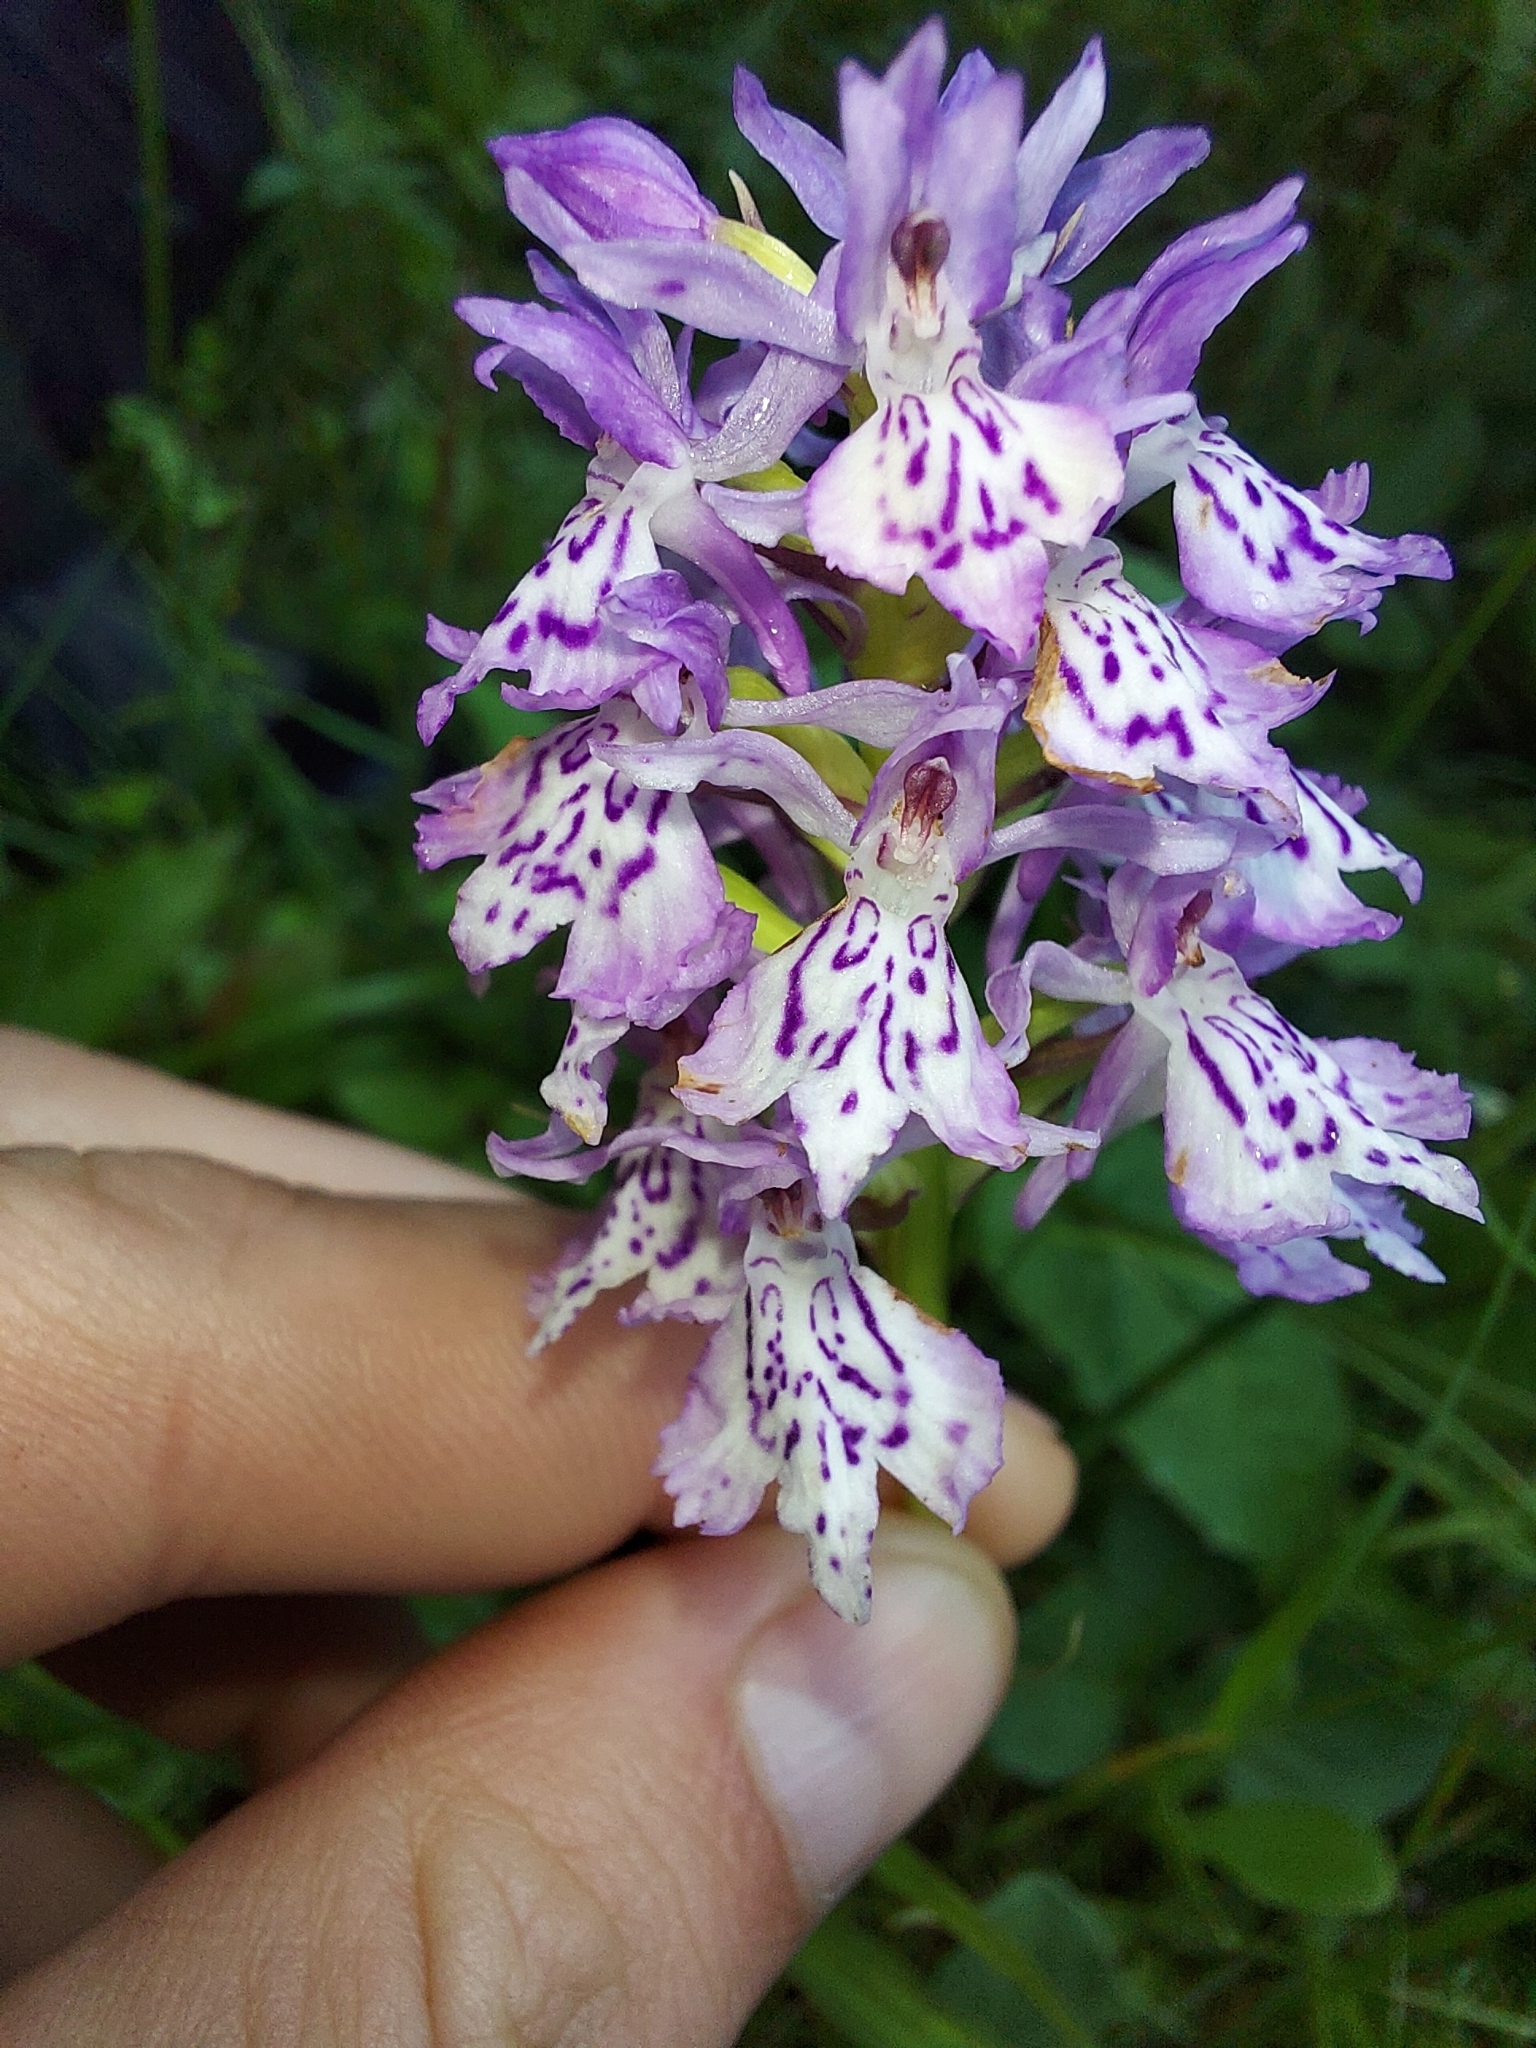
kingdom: Plantae
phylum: Tracheophyta
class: Liliopsida
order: Asparagales
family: Orchidaceae
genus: Dactylorhiza
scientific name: Dactylorhiza maculata
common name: Heath spotted-orchid
